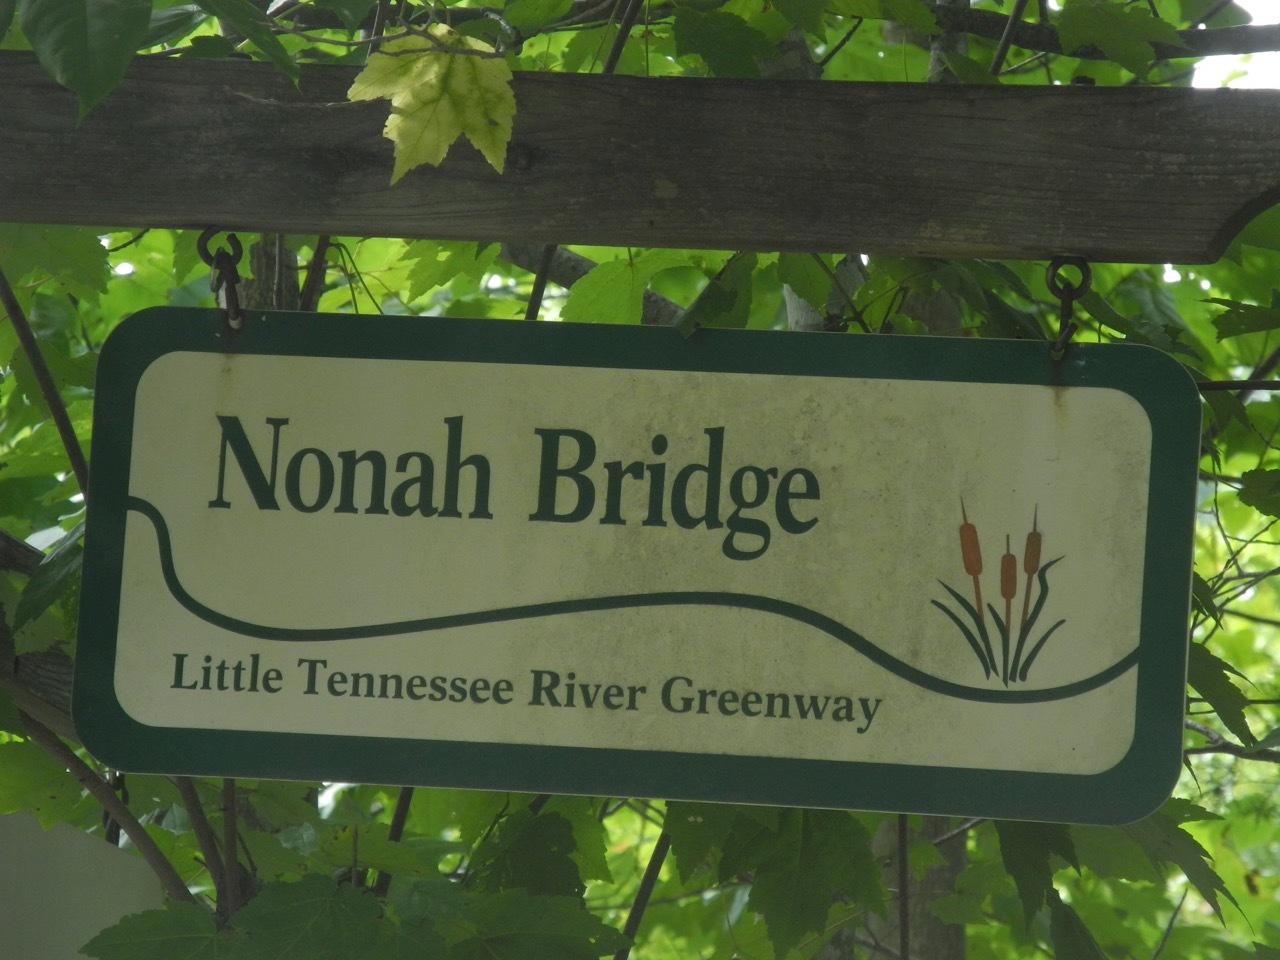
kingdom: Plantae
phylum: Tracheophyta
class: Magnoliopsida
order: Proteales
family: Platanaceae
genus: Platanus
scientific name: Platanus occidentalis
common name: American sycamore
